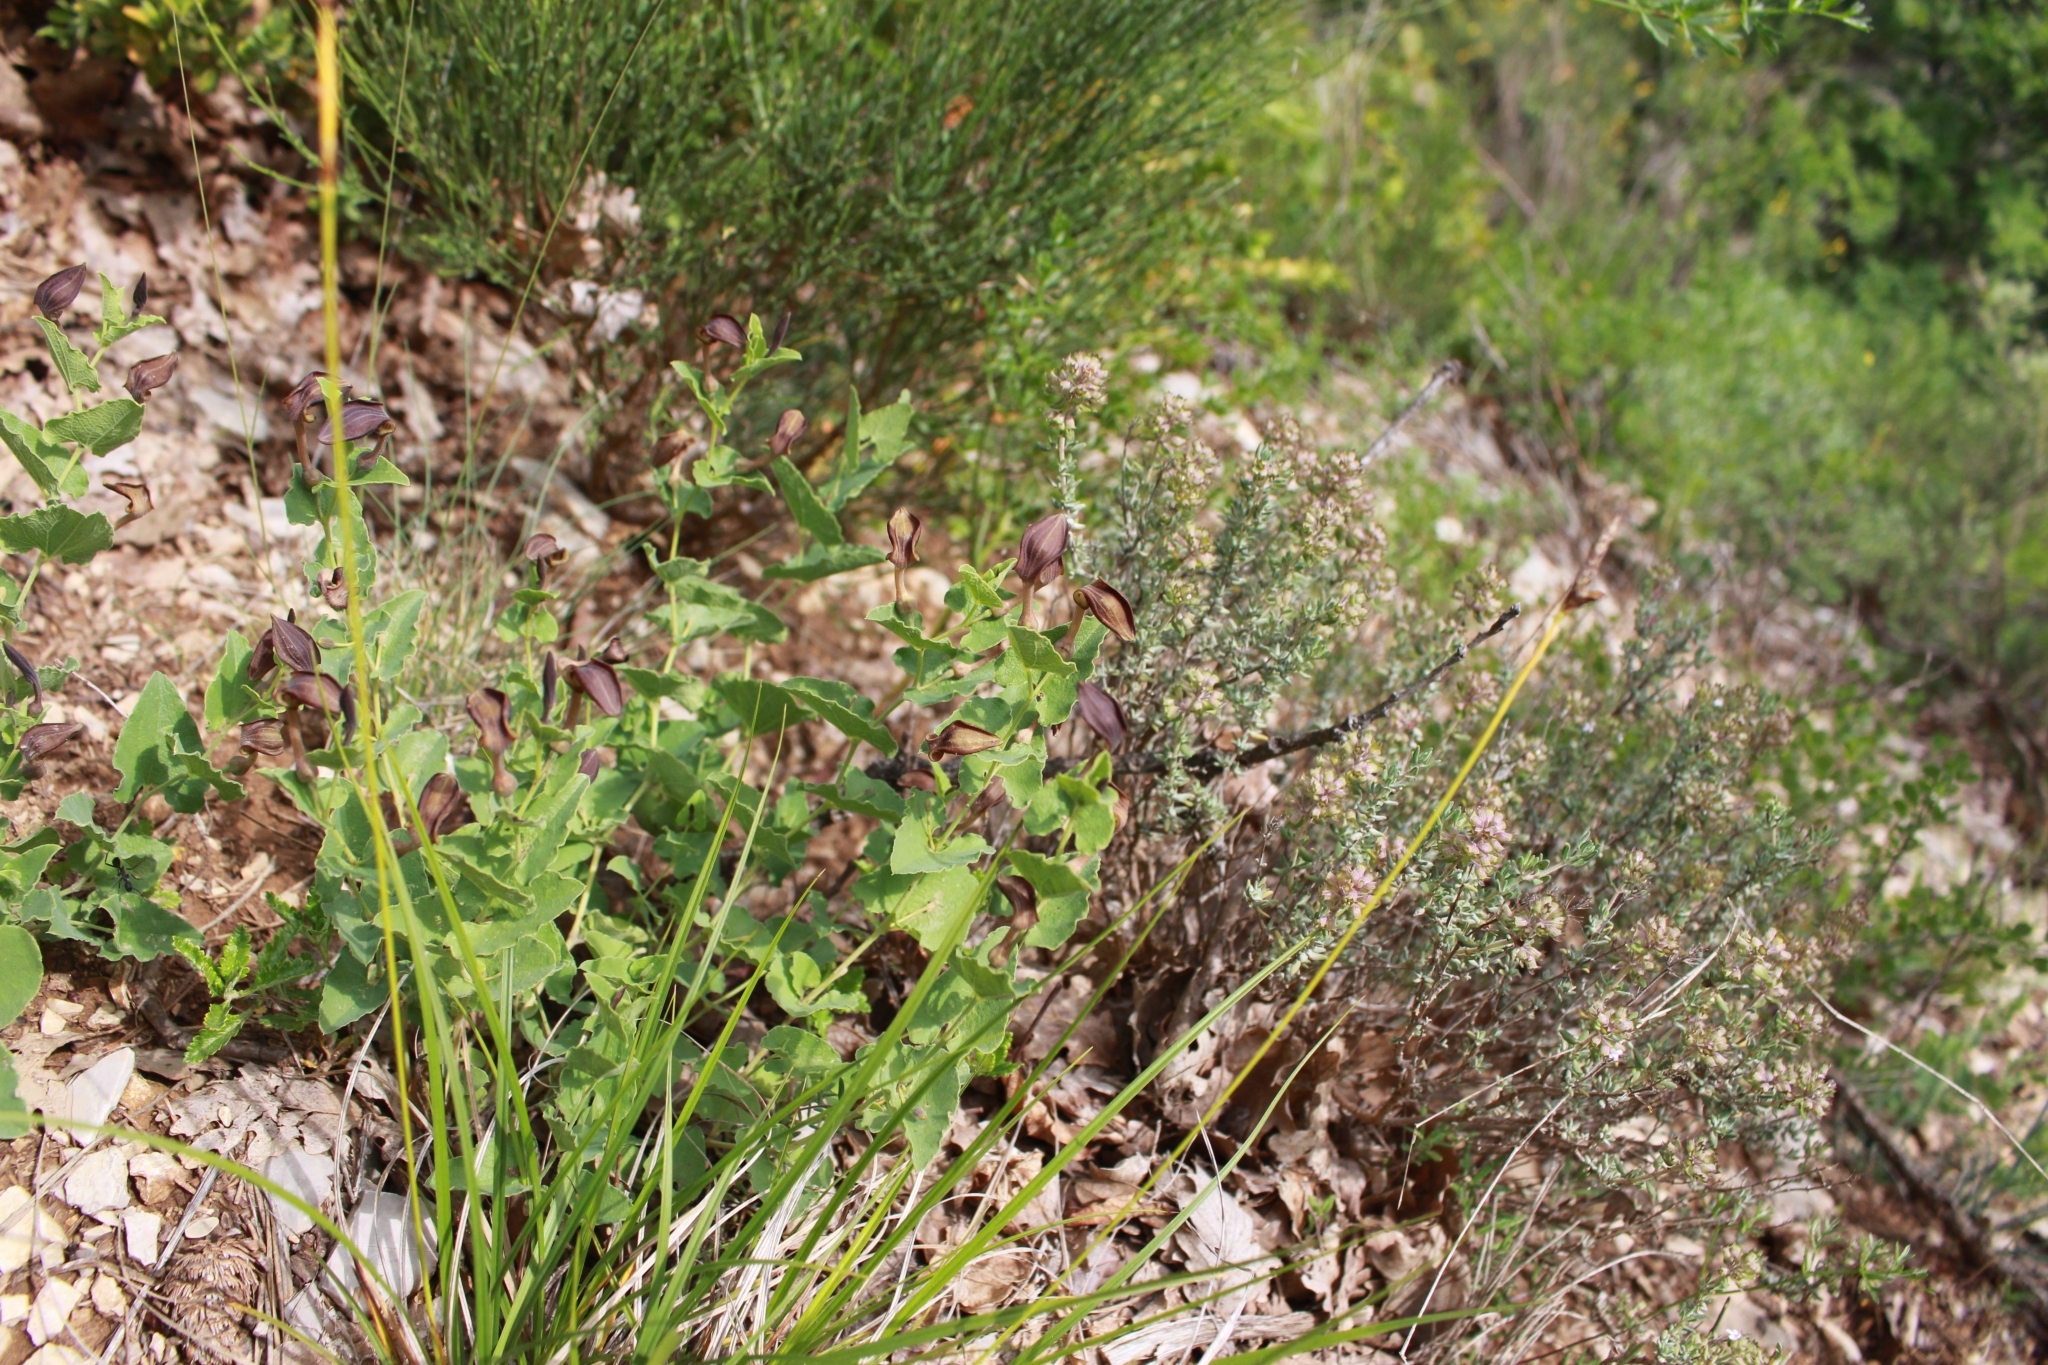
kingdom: Plantae
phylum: Tracheophyta
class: Magnoliopsida
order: Piperales
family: Aristolochiaceae
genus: Aristolochia
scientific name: Aristolochia pistolochia
